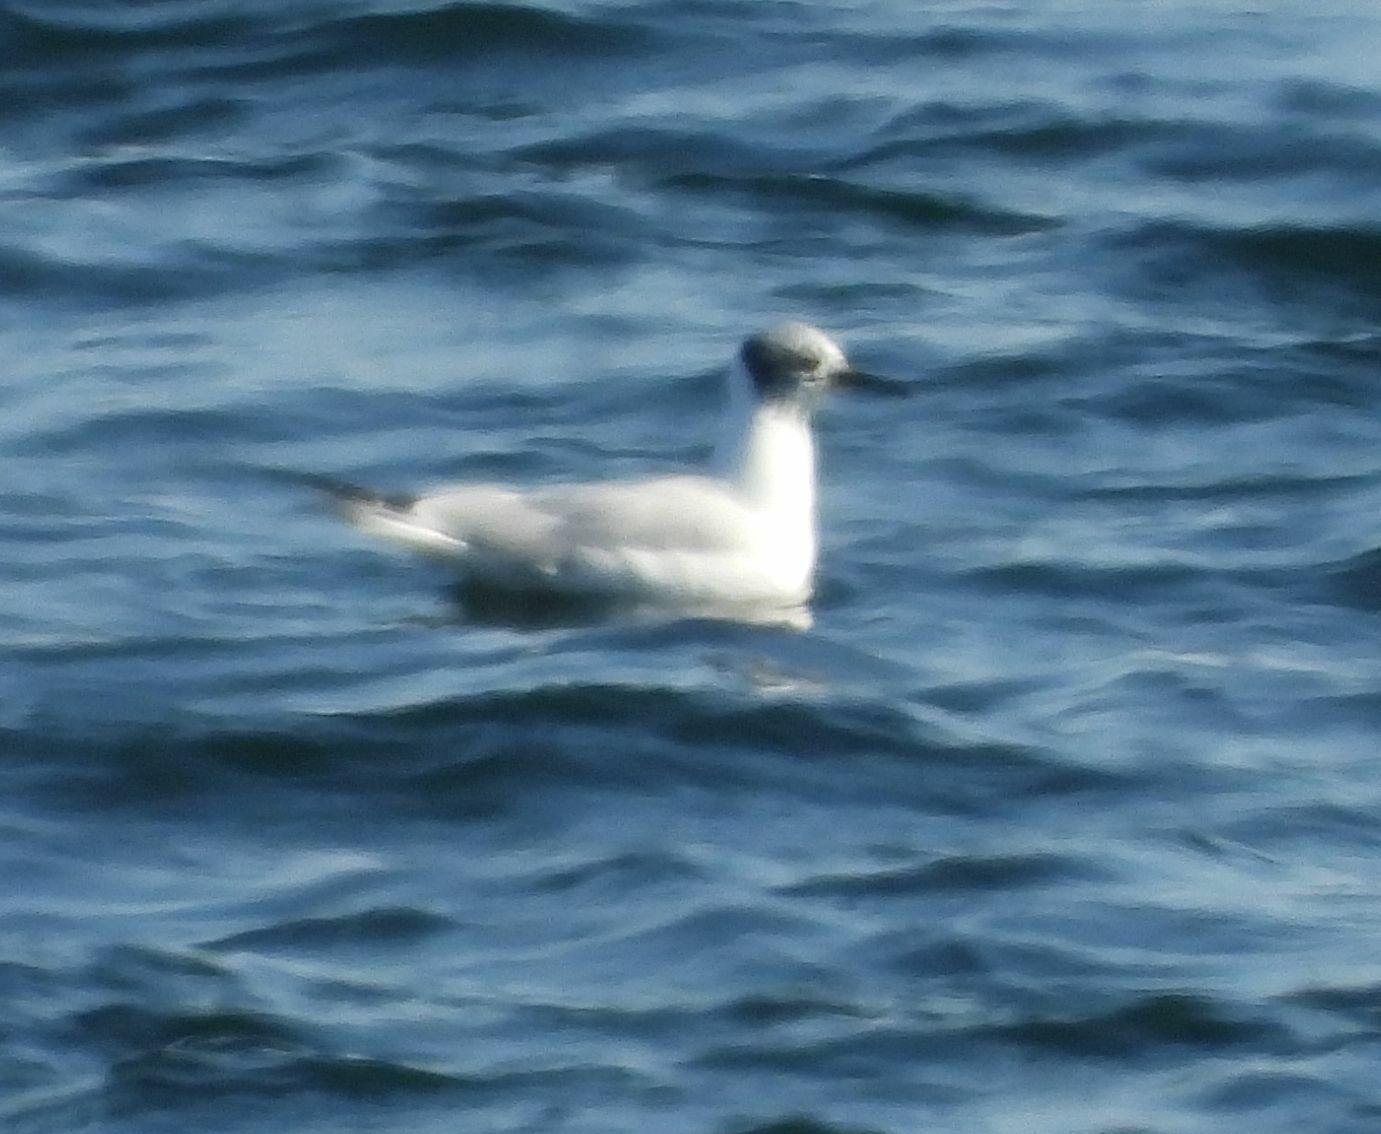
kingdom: Animalia
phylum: Chordata
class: Aves
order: Charadriiformes
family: Laridae
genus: Chroicocephalus
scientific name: Chroicocephalus philadelphia
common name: Bonaparte's gull
